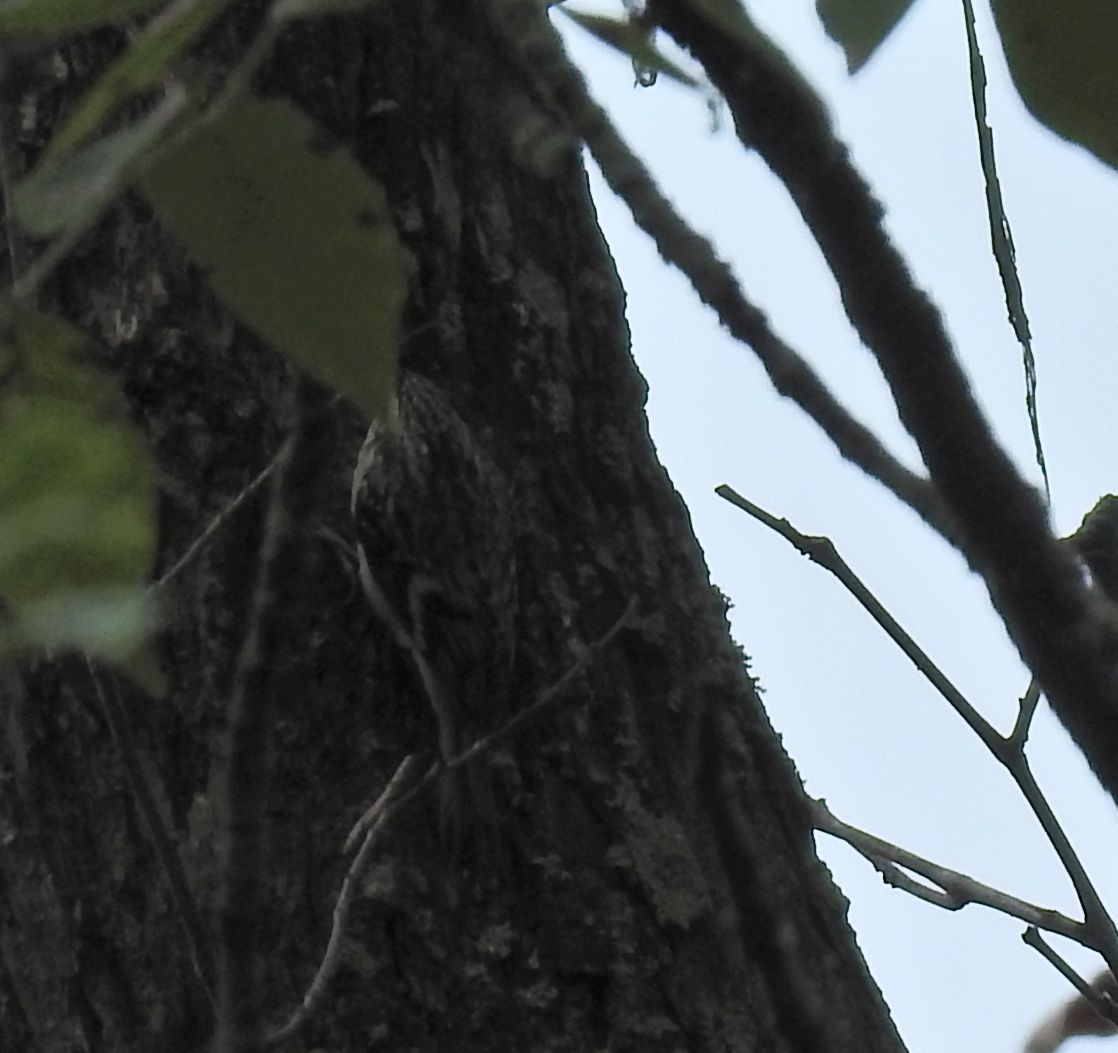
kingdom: Animalia
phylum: Chordata
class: Aves
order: Passeriformes
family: Certhiidae
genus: Certhia
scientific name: Certhia americana
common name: Brown creeper
